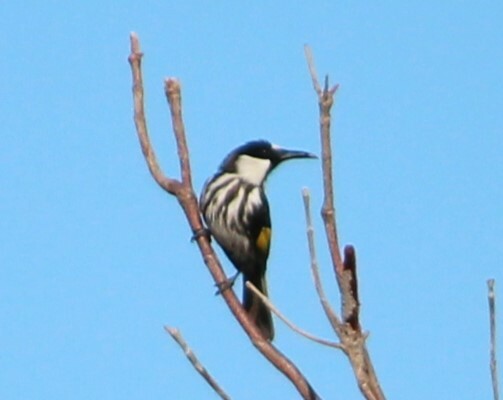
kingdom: Animalia
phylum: Chordata
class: Aves
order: Passeriformes
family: Meliphagidae
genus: Phylidonyris
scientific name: Phylidonyris niger
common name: White-cheeked honeyeater
